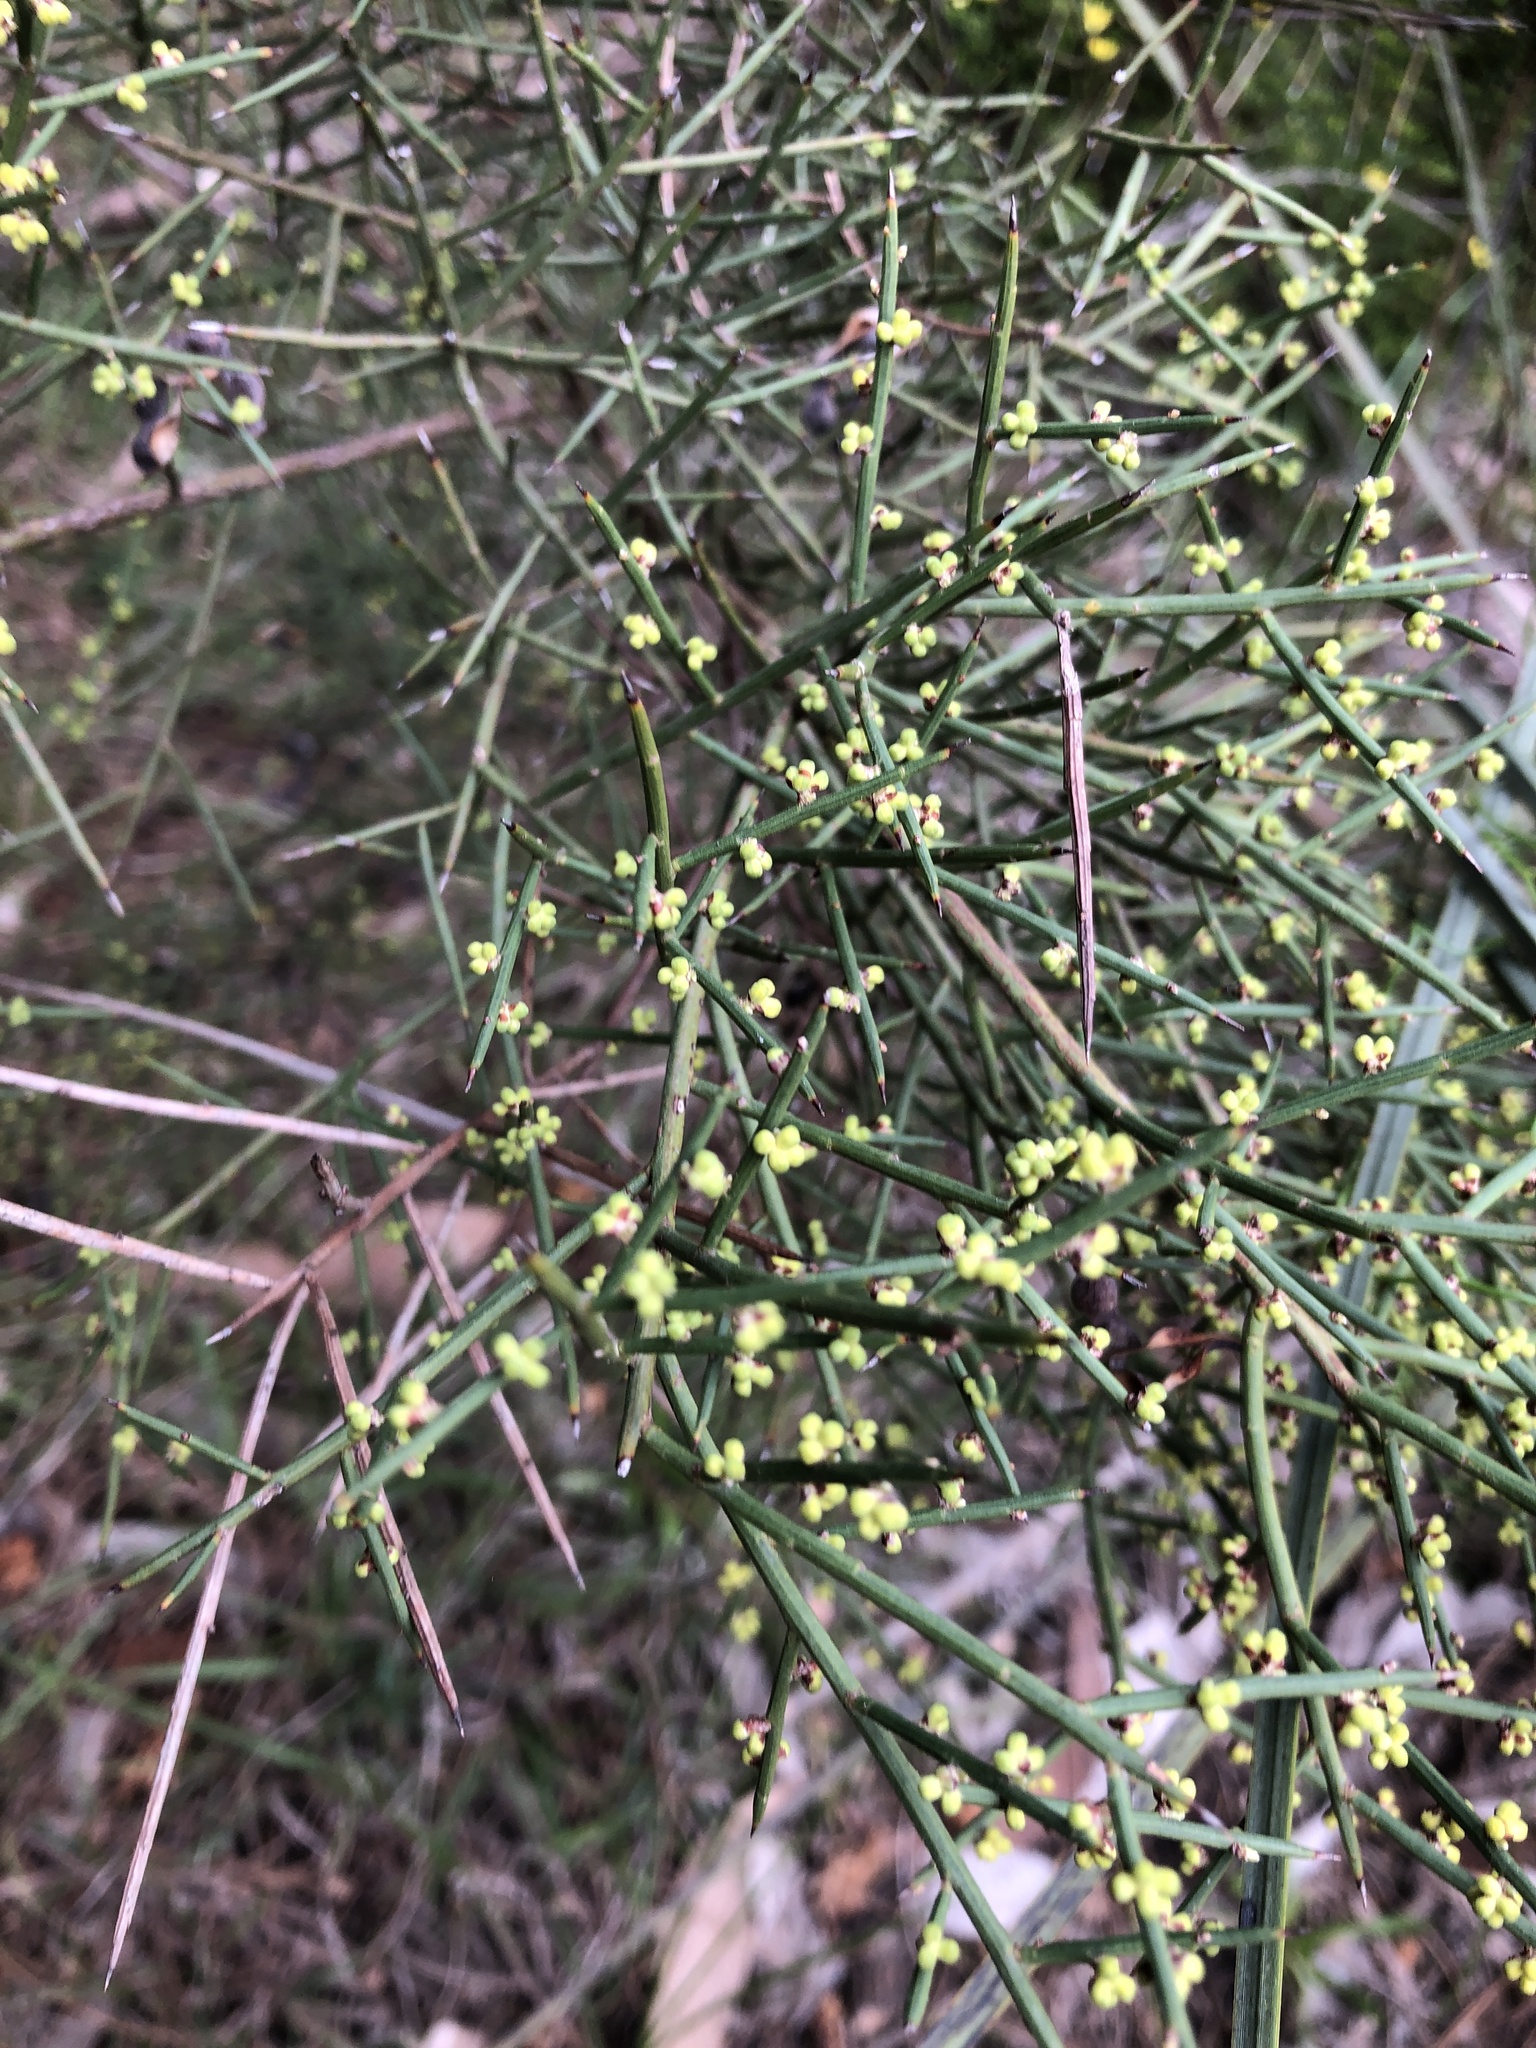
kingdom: Plantae
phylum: Tracheophyta
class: Magnoliopsida
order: Fabales
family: Fabaceae
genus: Acacia
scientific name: Acacia spinescens
